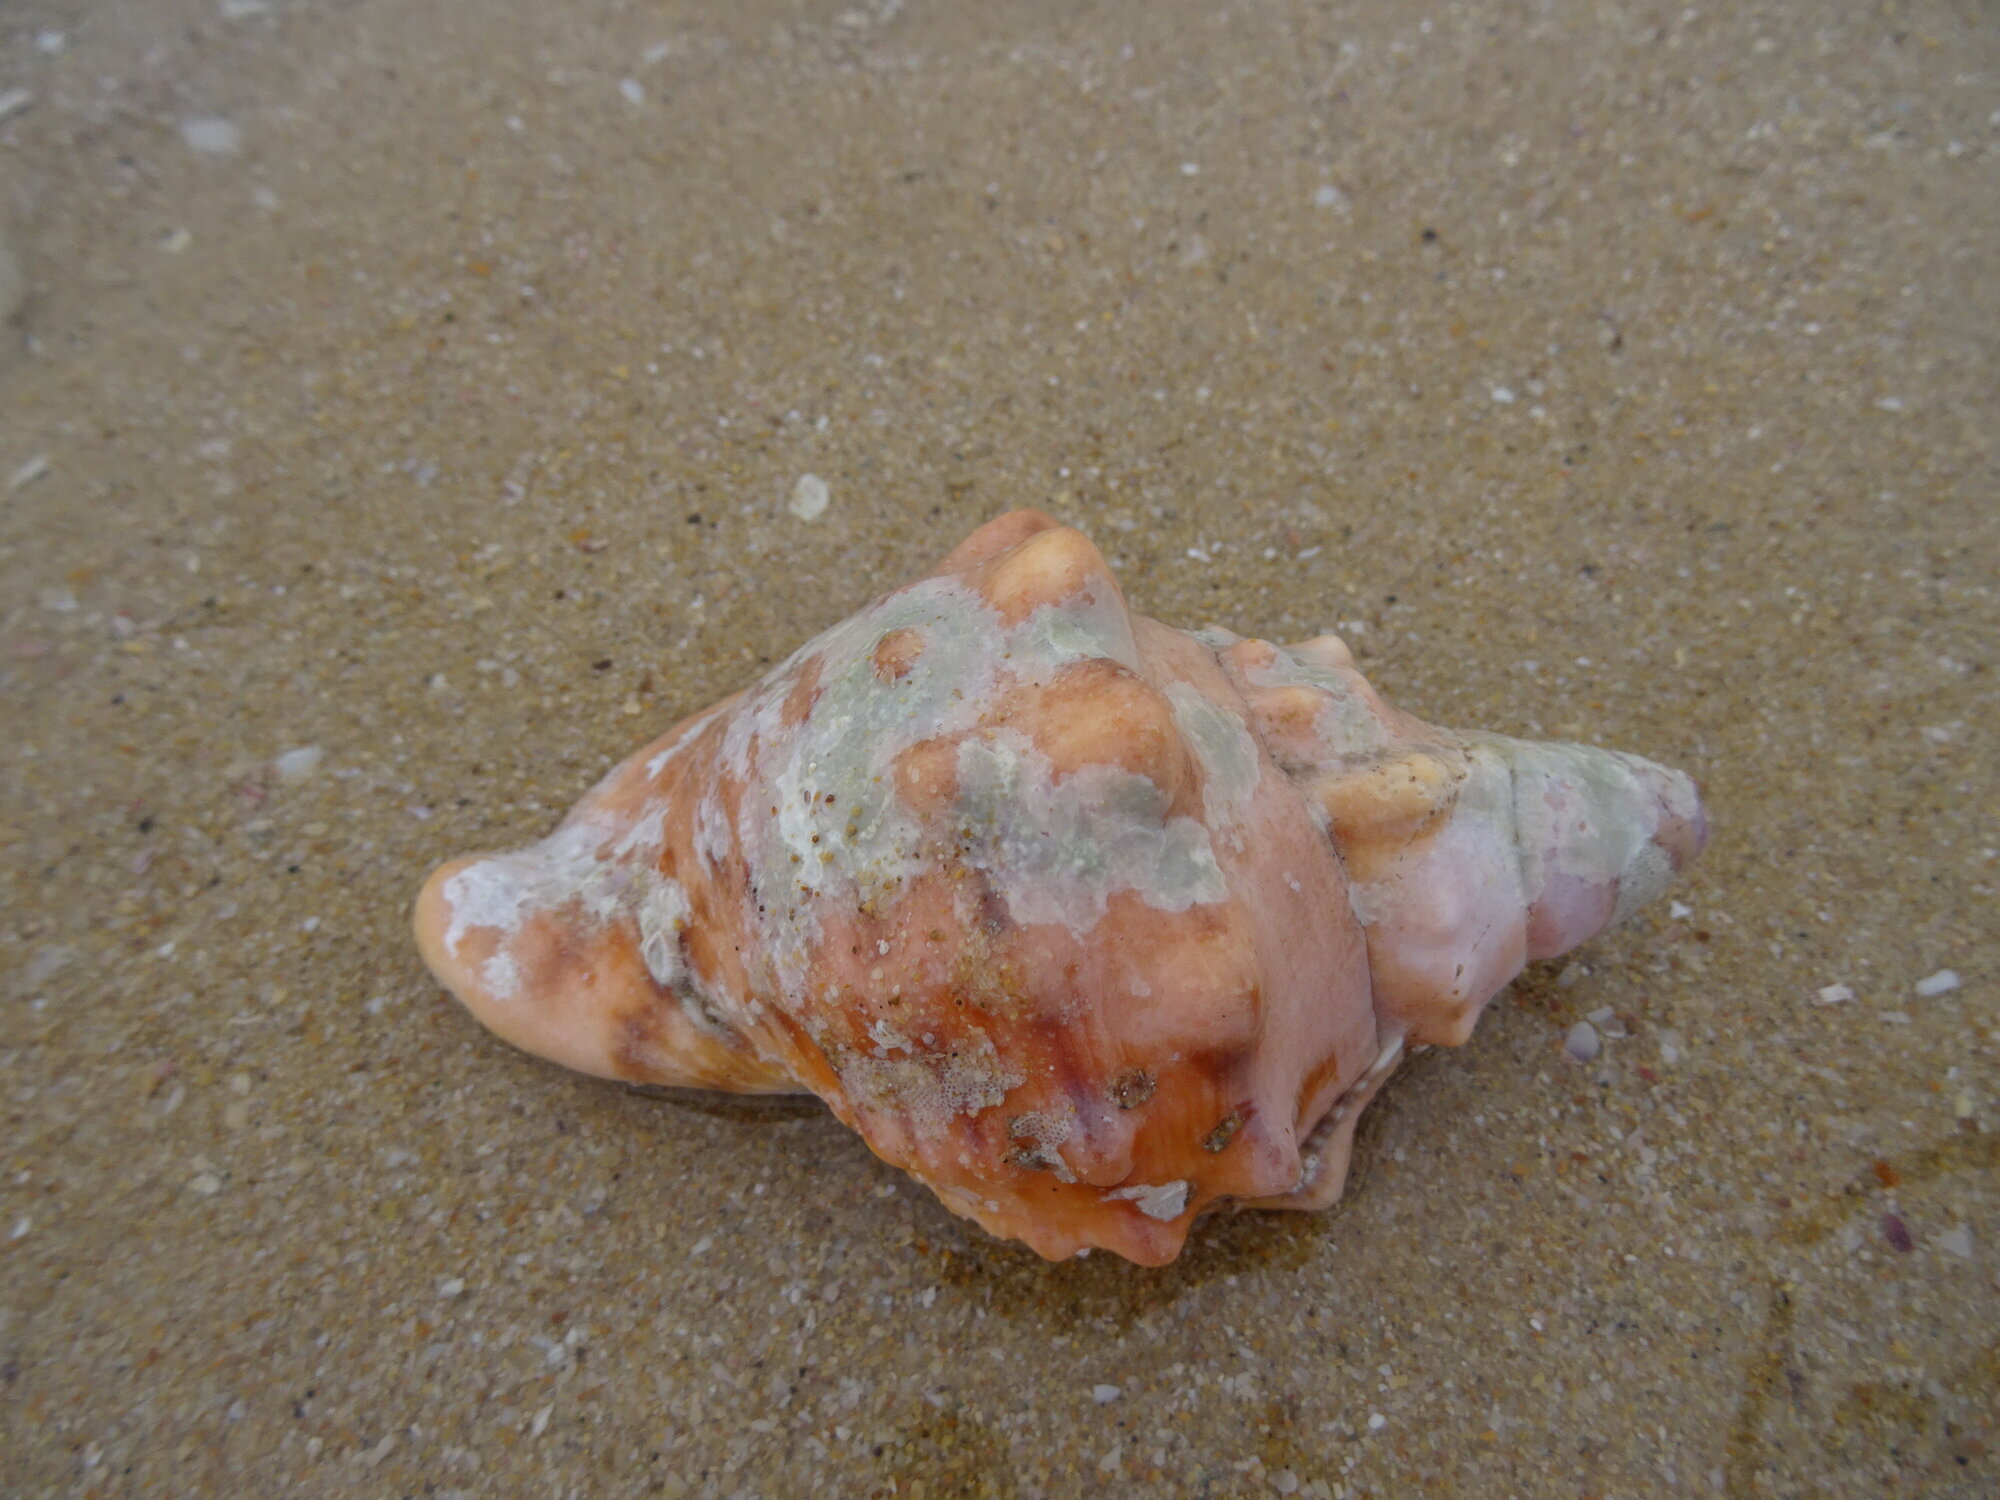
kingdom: Animalia
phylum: Mollusca
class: Gastropoda
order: Littorinimorpha
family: Charoniidae
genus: Charonia
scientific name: Charonia lampas
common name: Knobbed triton
